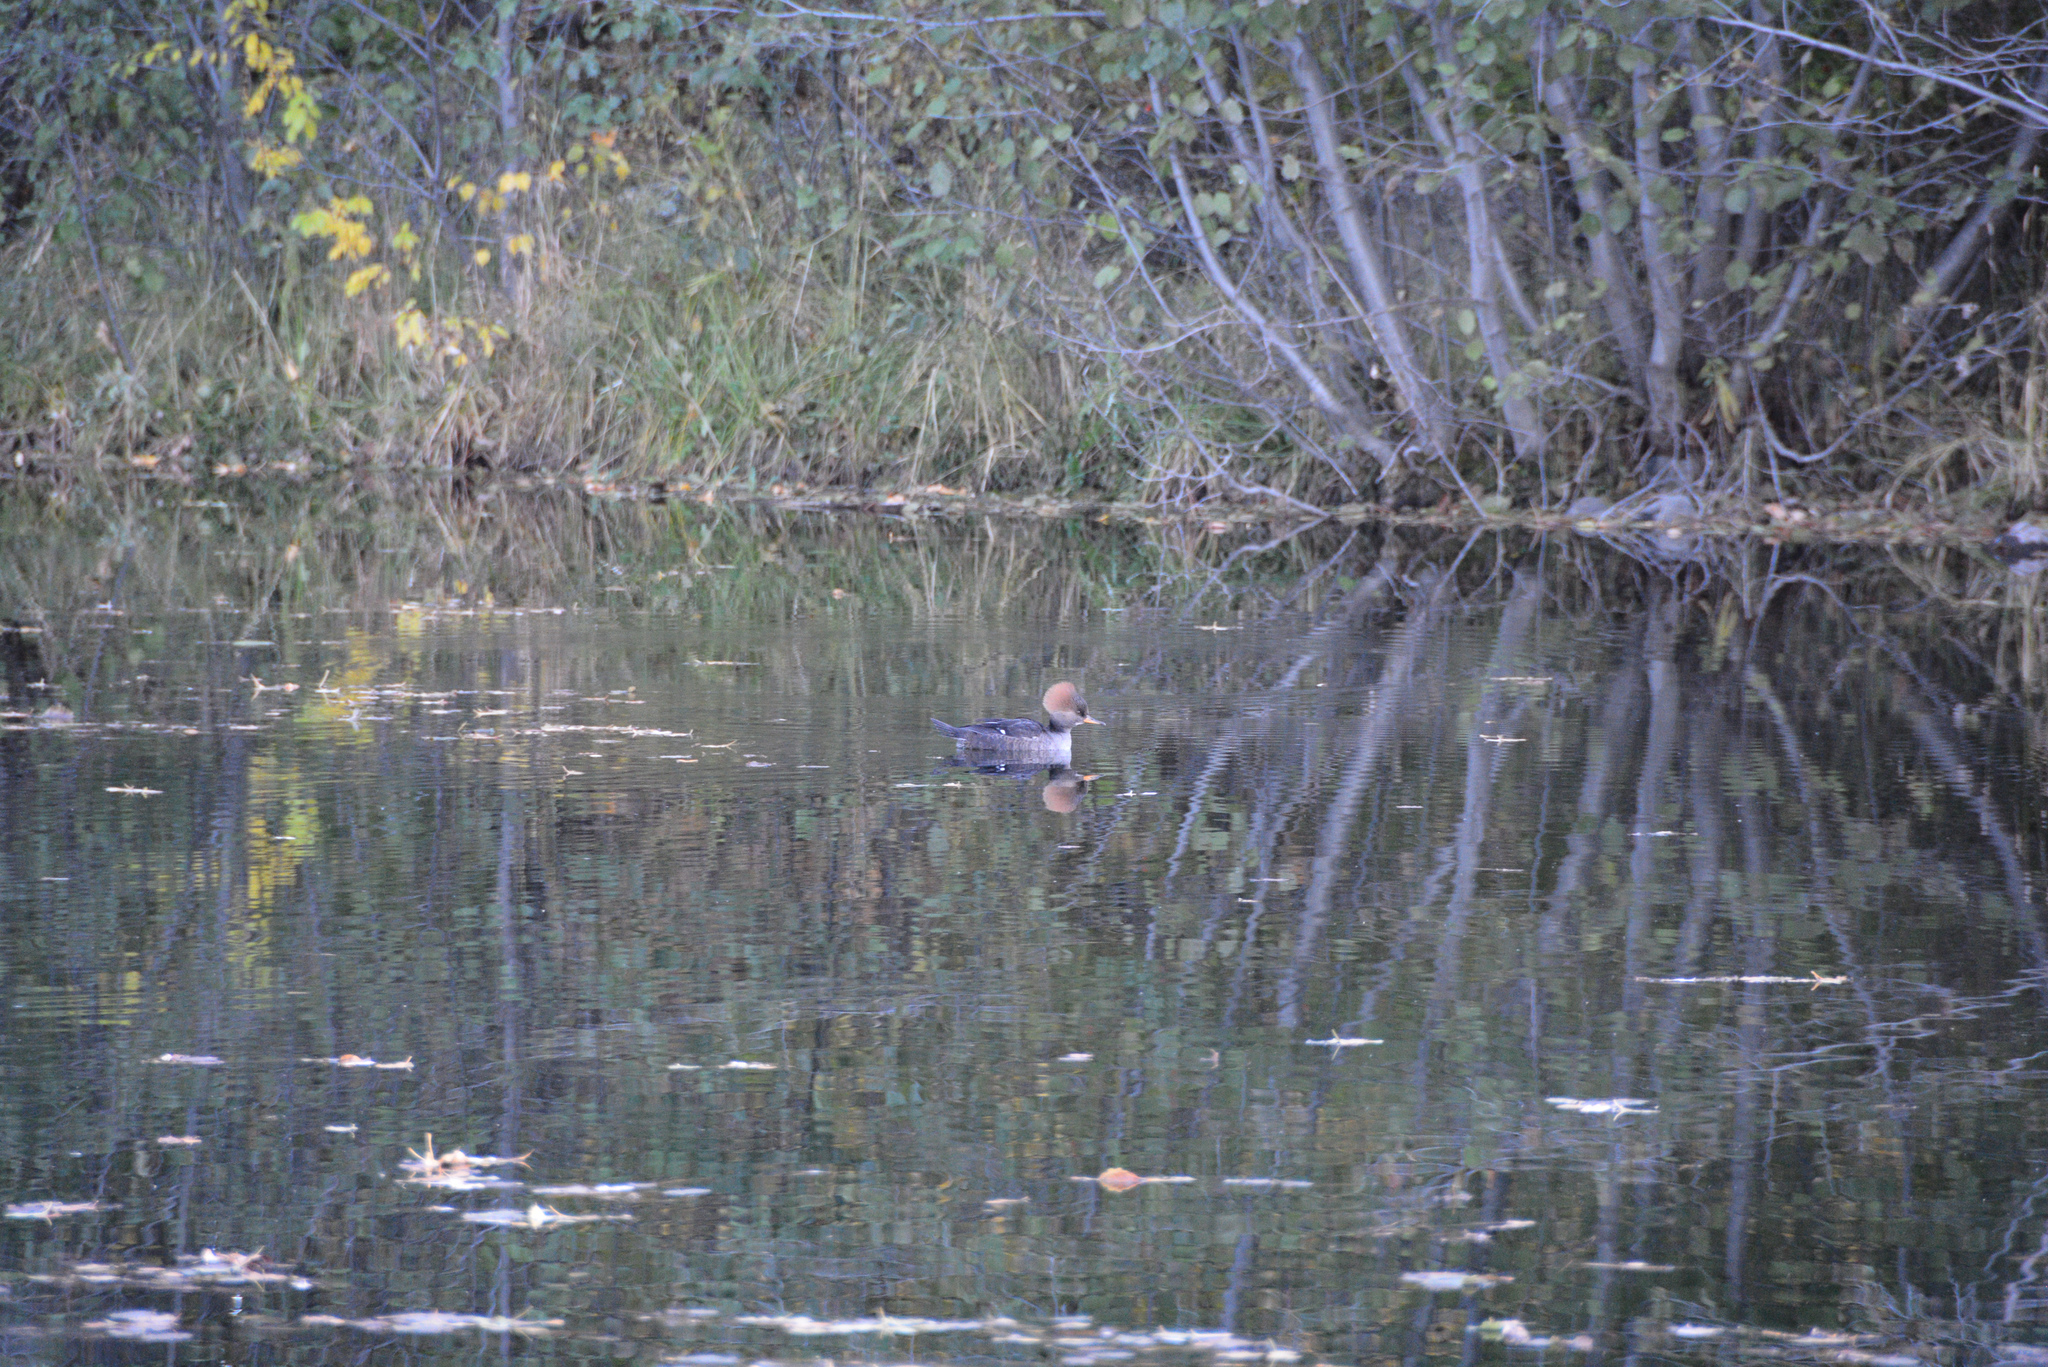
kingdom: Animalia
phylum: Chordata
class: Aves
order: Anseriformes
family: Anatidae
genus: Lophodytes
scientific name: Lophodytes cucullatus
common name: Hooded merganser
